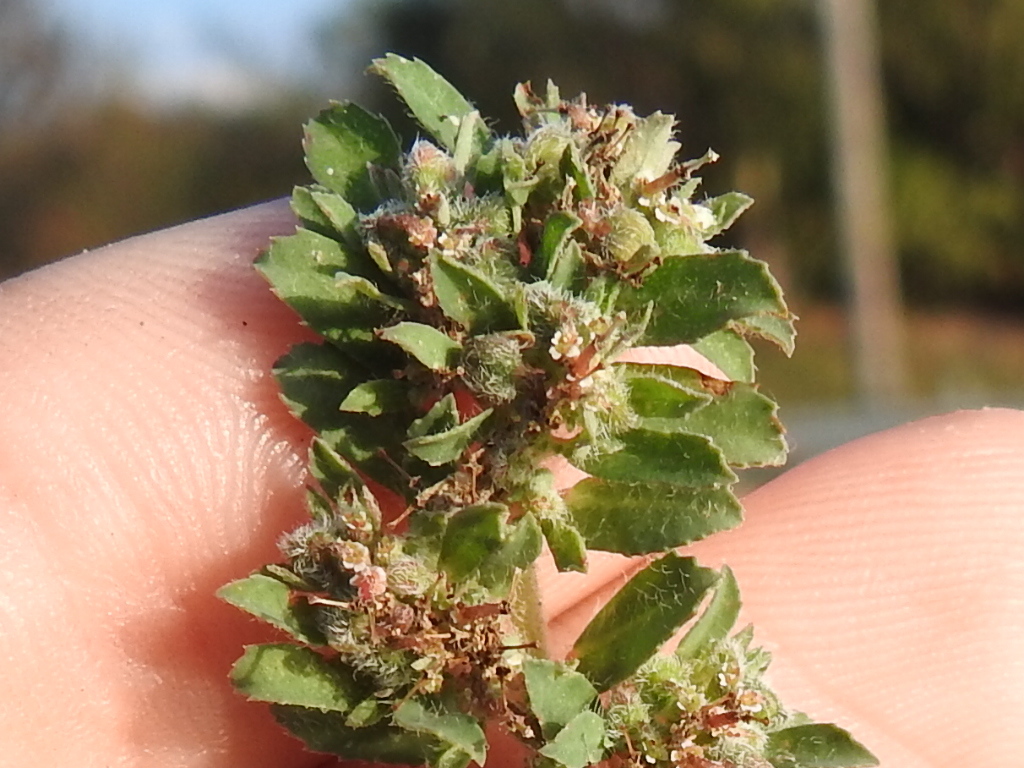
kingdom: Plantae
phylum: Tracheophyta
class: Magnoliopsida
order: Malpighiales
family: Euphorbiaceae
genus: Euphorbia
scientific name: Euphorbia stictospora
